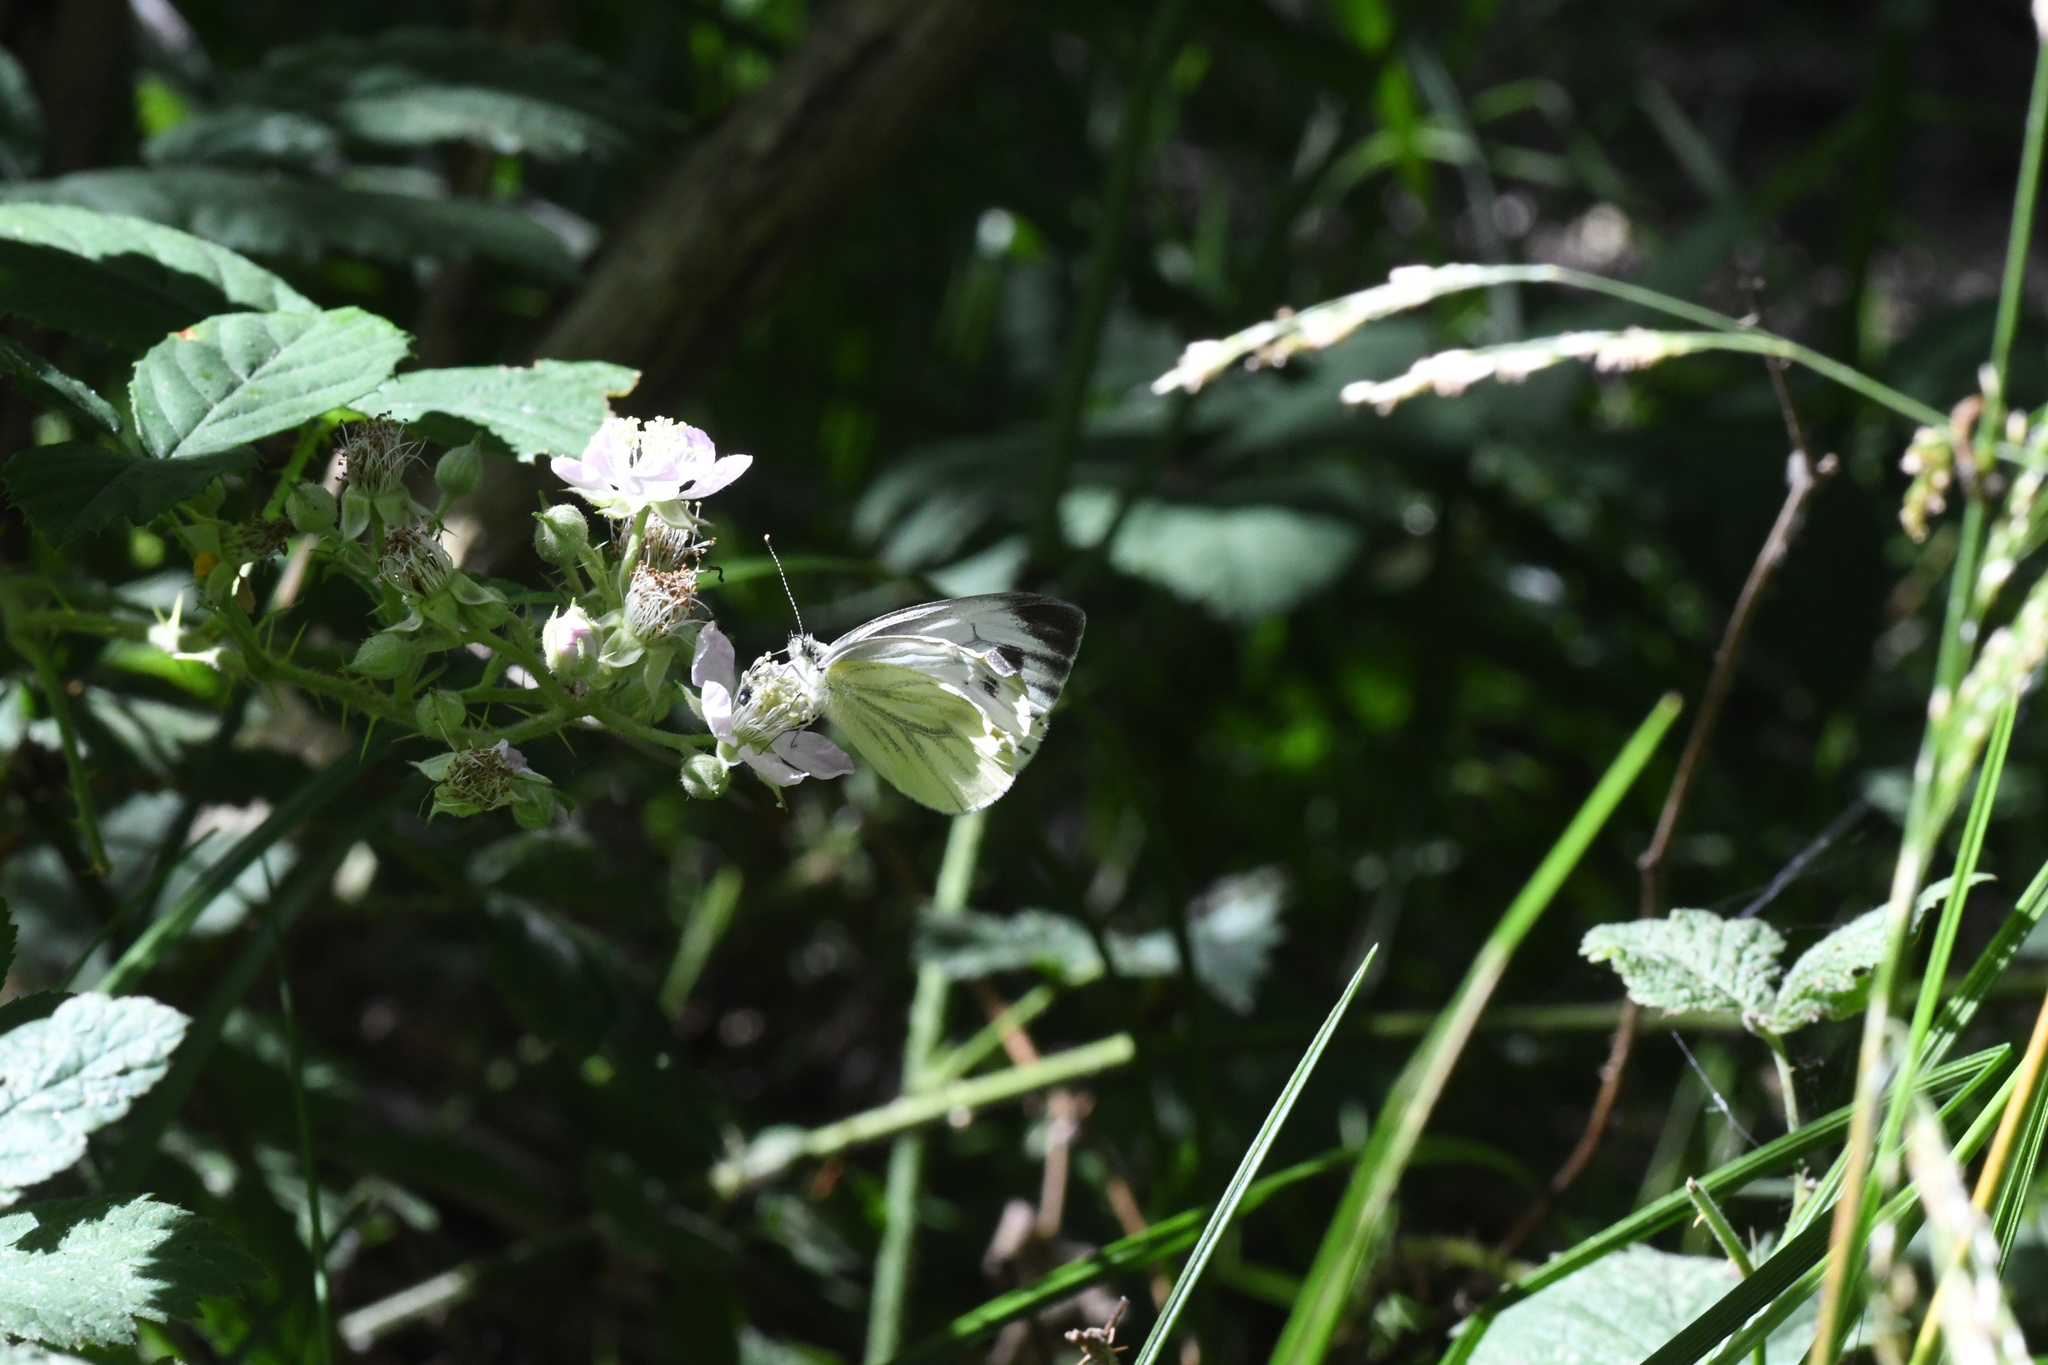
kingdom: Animalia
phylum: Arthropoda
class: Insecta
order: Lepidoptera
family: Pieridae
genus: Pieris
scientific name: Pieris napi
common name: Green-veined white
